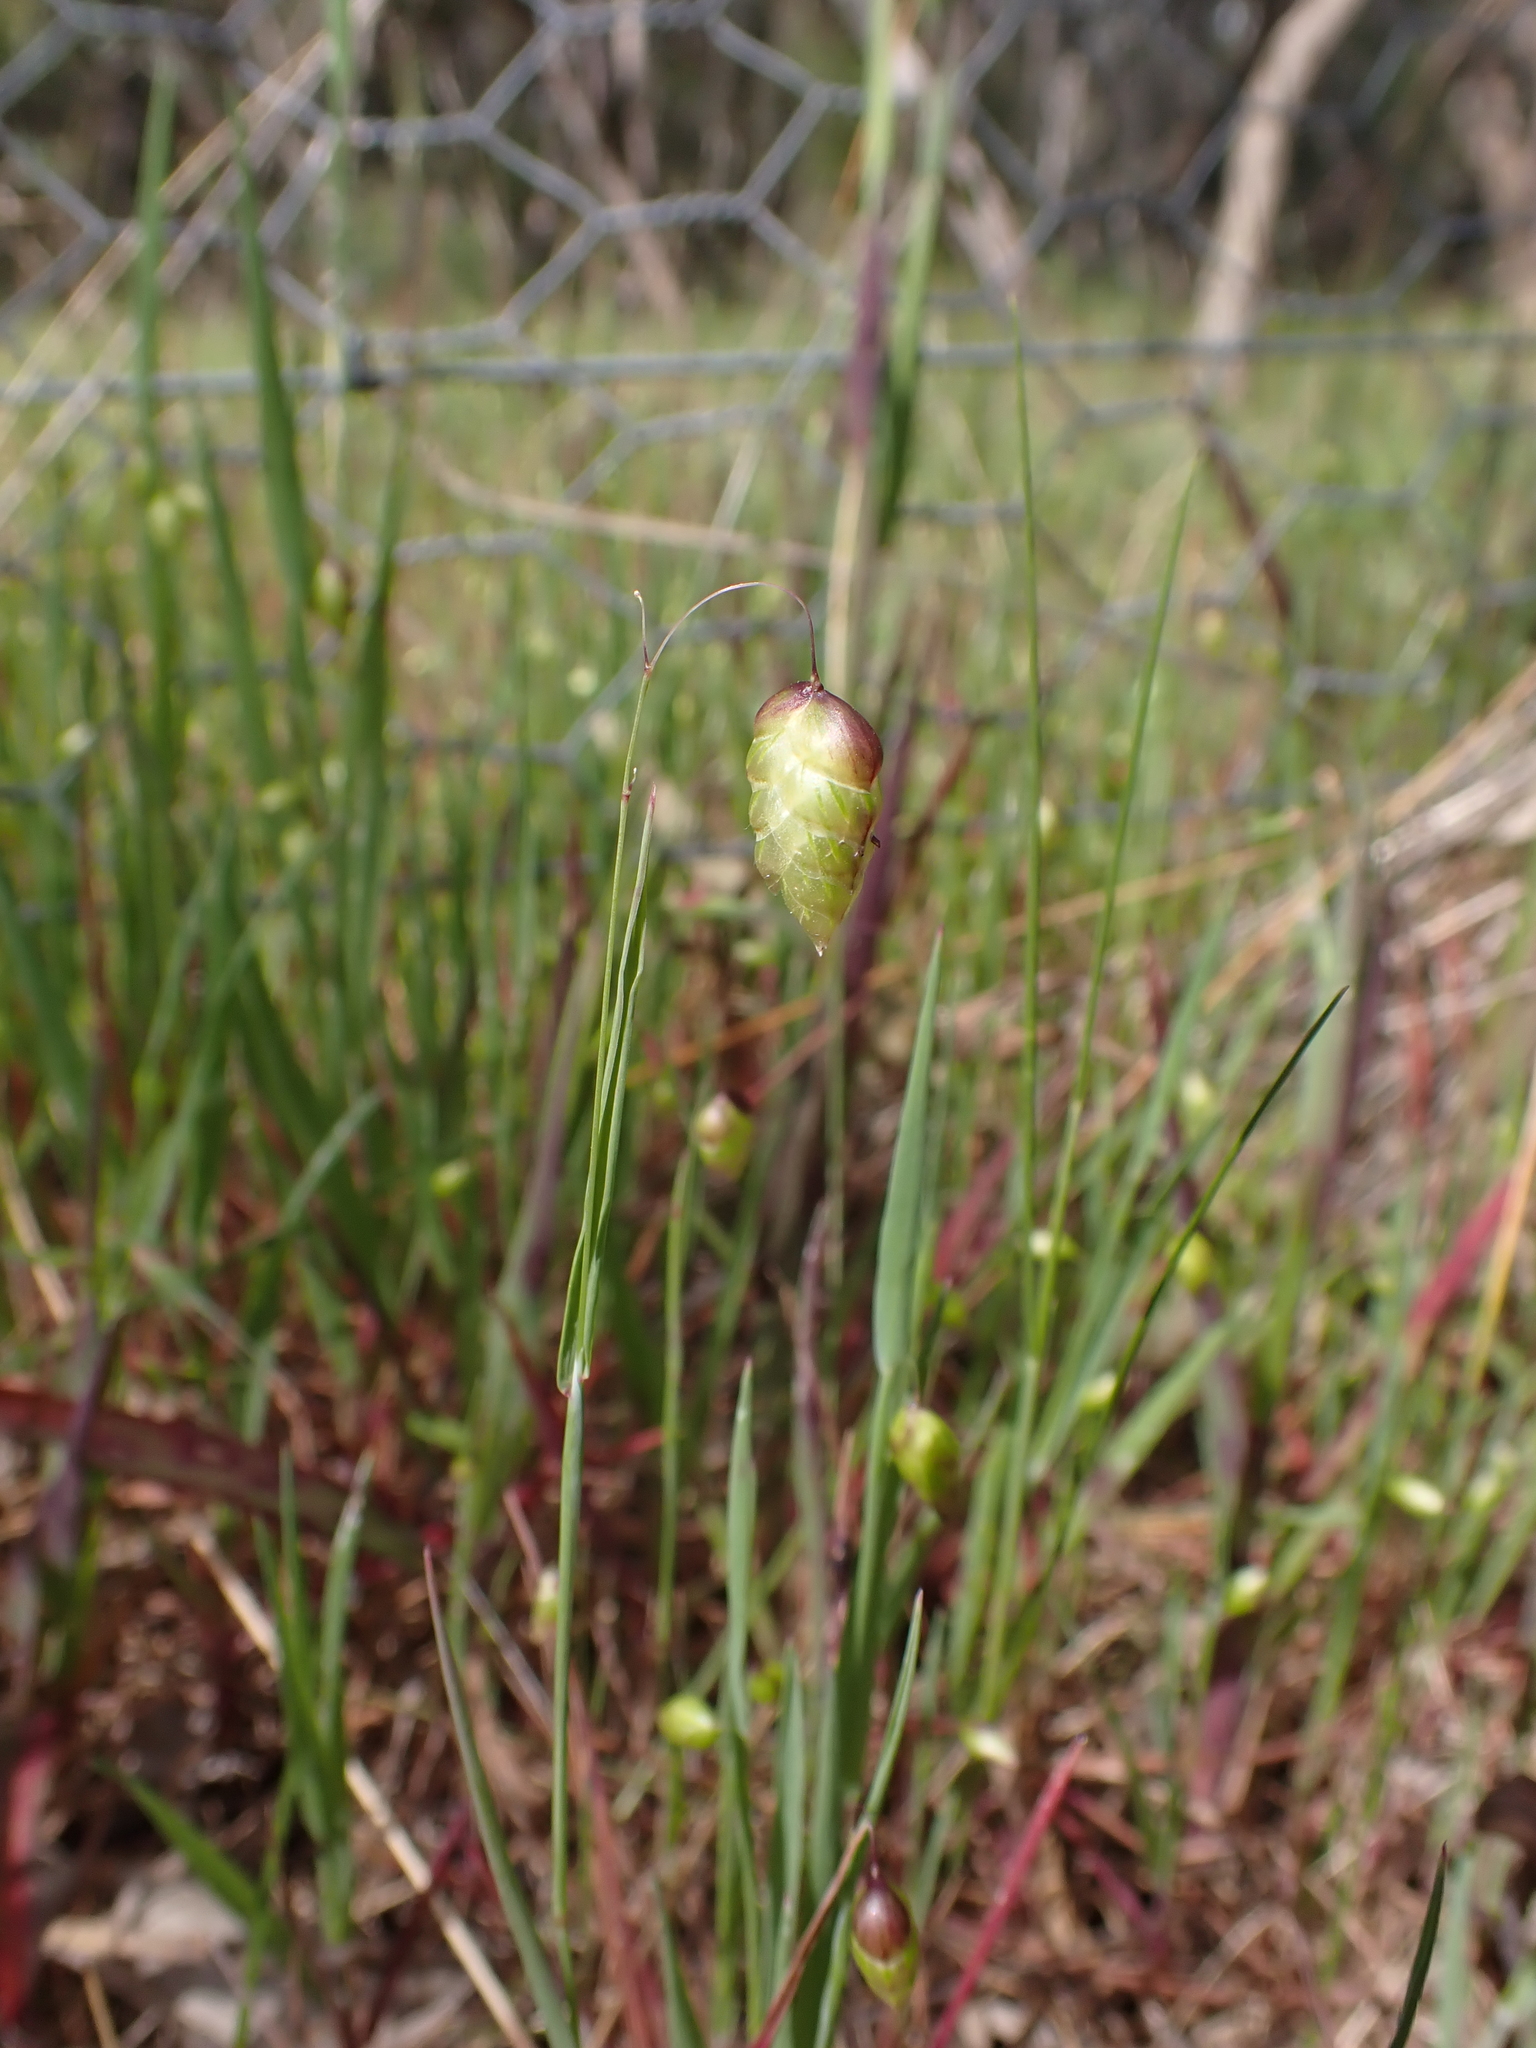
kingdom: Plantae
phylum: Tracheophyta
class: Liliopsida
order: Poales
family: Poaceae
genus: Briza
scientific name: Briza maxima
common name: Big quakinggrass
